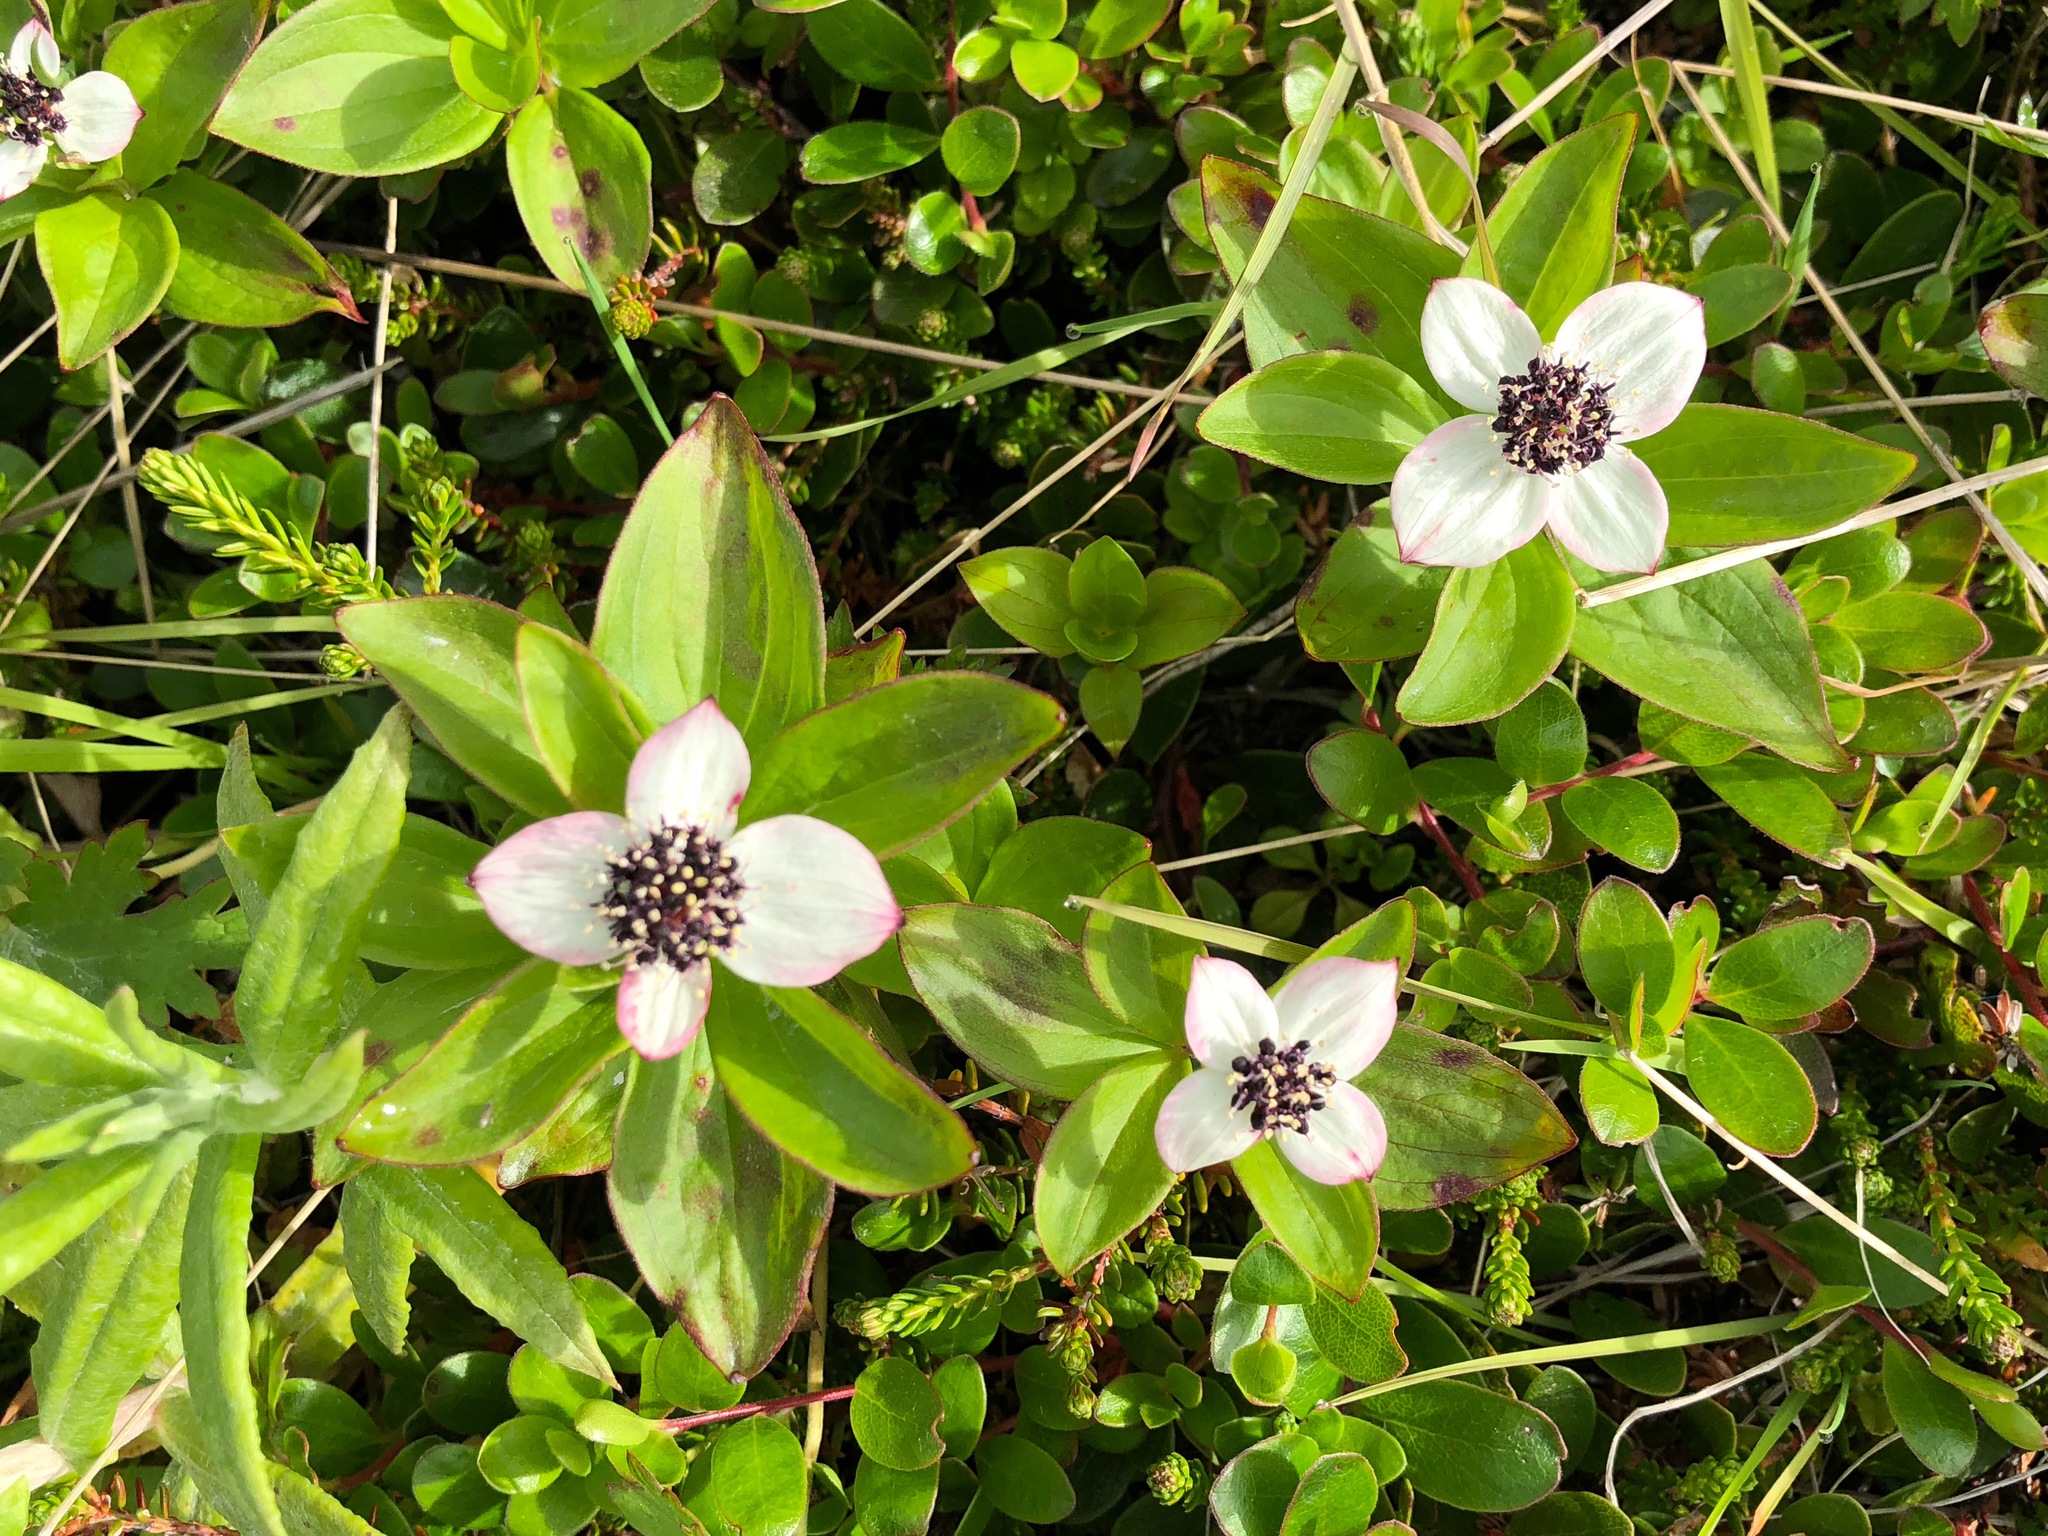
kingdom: Plantae
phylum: Tracheophyta
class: Magnoliopsida
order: Cornales
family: Cornaceae
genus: Cornus
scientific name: Cornus suecica
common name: Dwarf cornel
